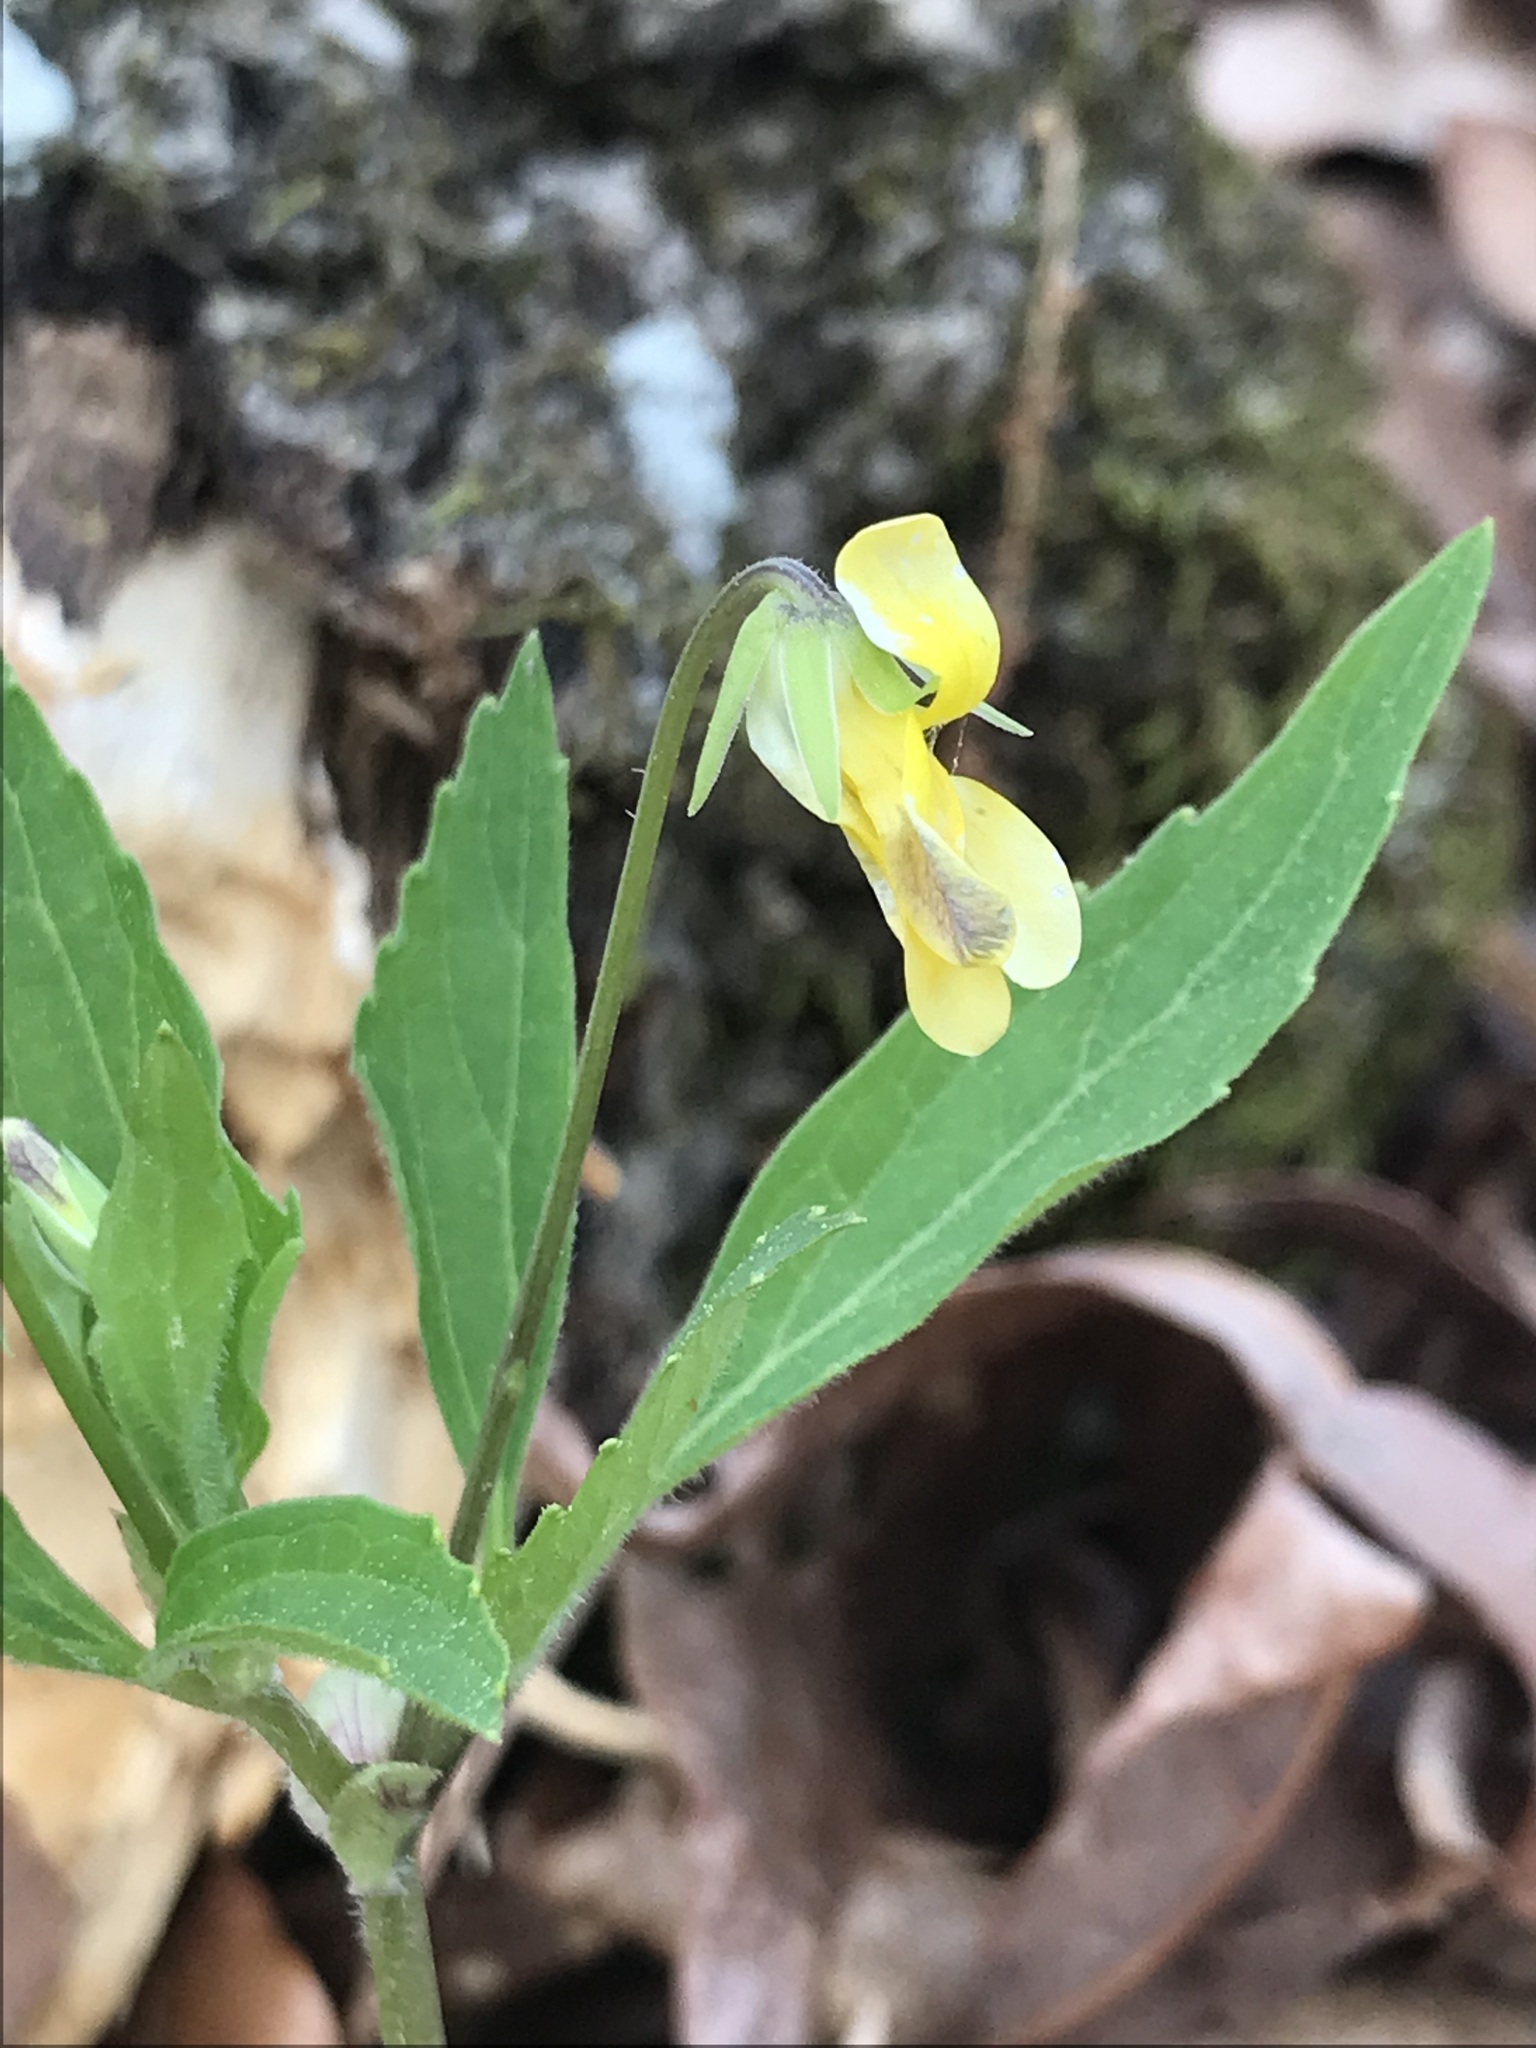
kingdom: Plantae
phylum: Tracheophyta
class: Magnoliopsida
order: Malpighiales
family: Violaceae
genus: Viola
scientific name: Viola tripartita
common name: Three-part violet
